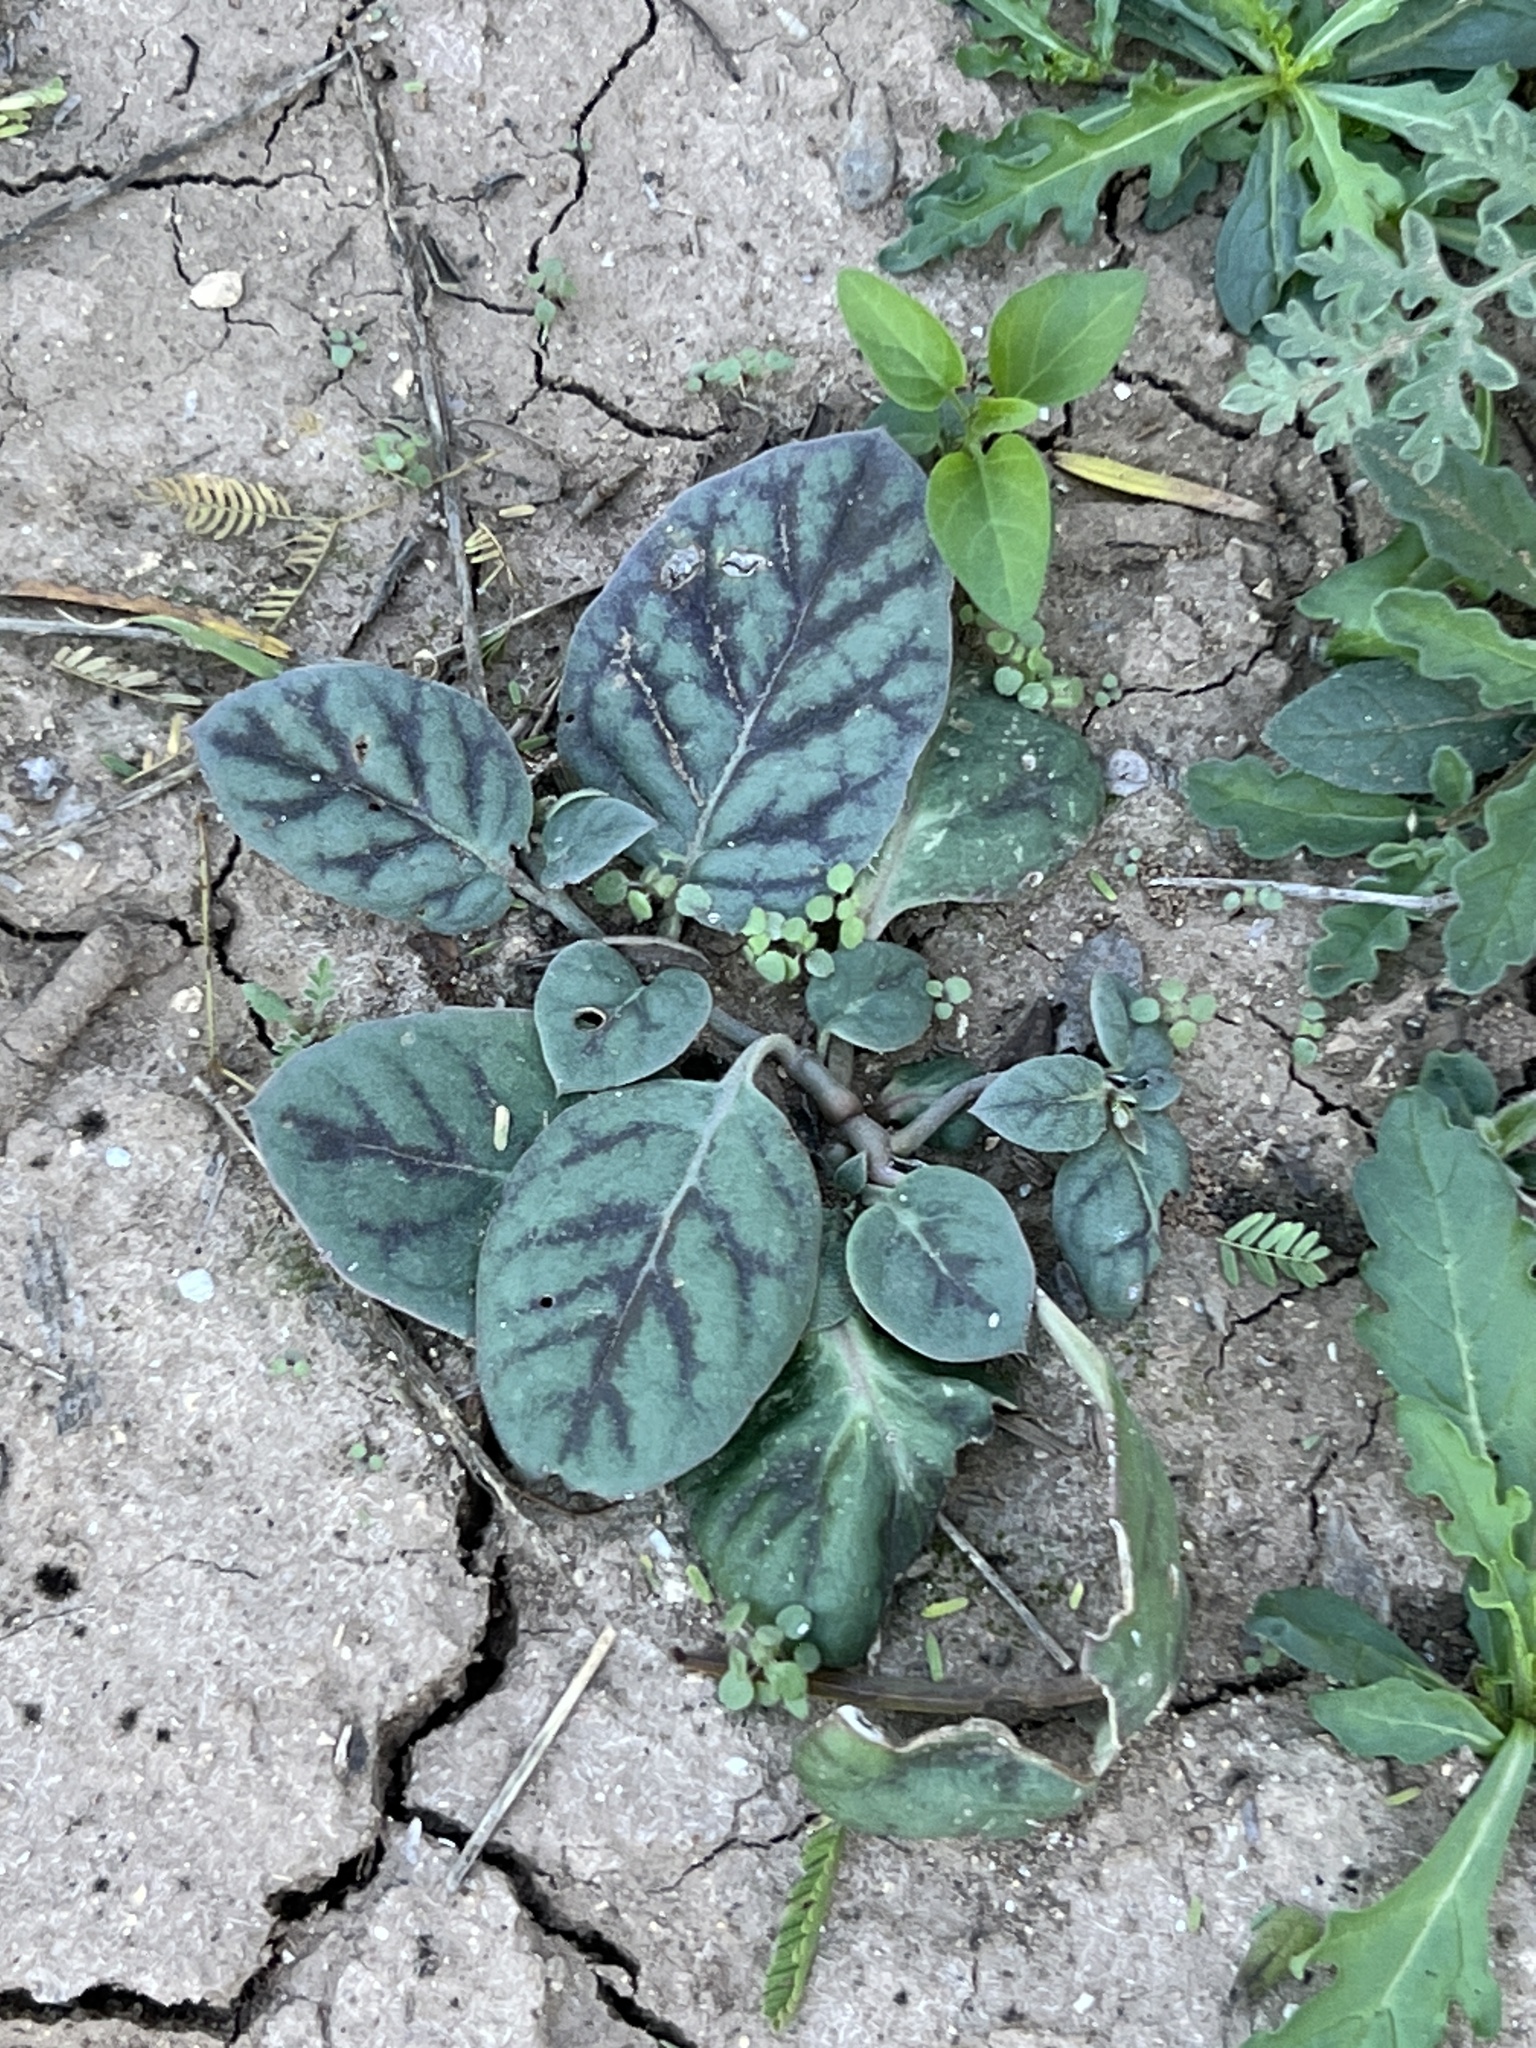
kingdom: Plantae
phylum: Tracheophyta
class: Magnoliopsida
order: Caryophyllales
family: Nyctaginaceae
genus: Acleisanthes
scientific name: Acleisanthes anisophylla
